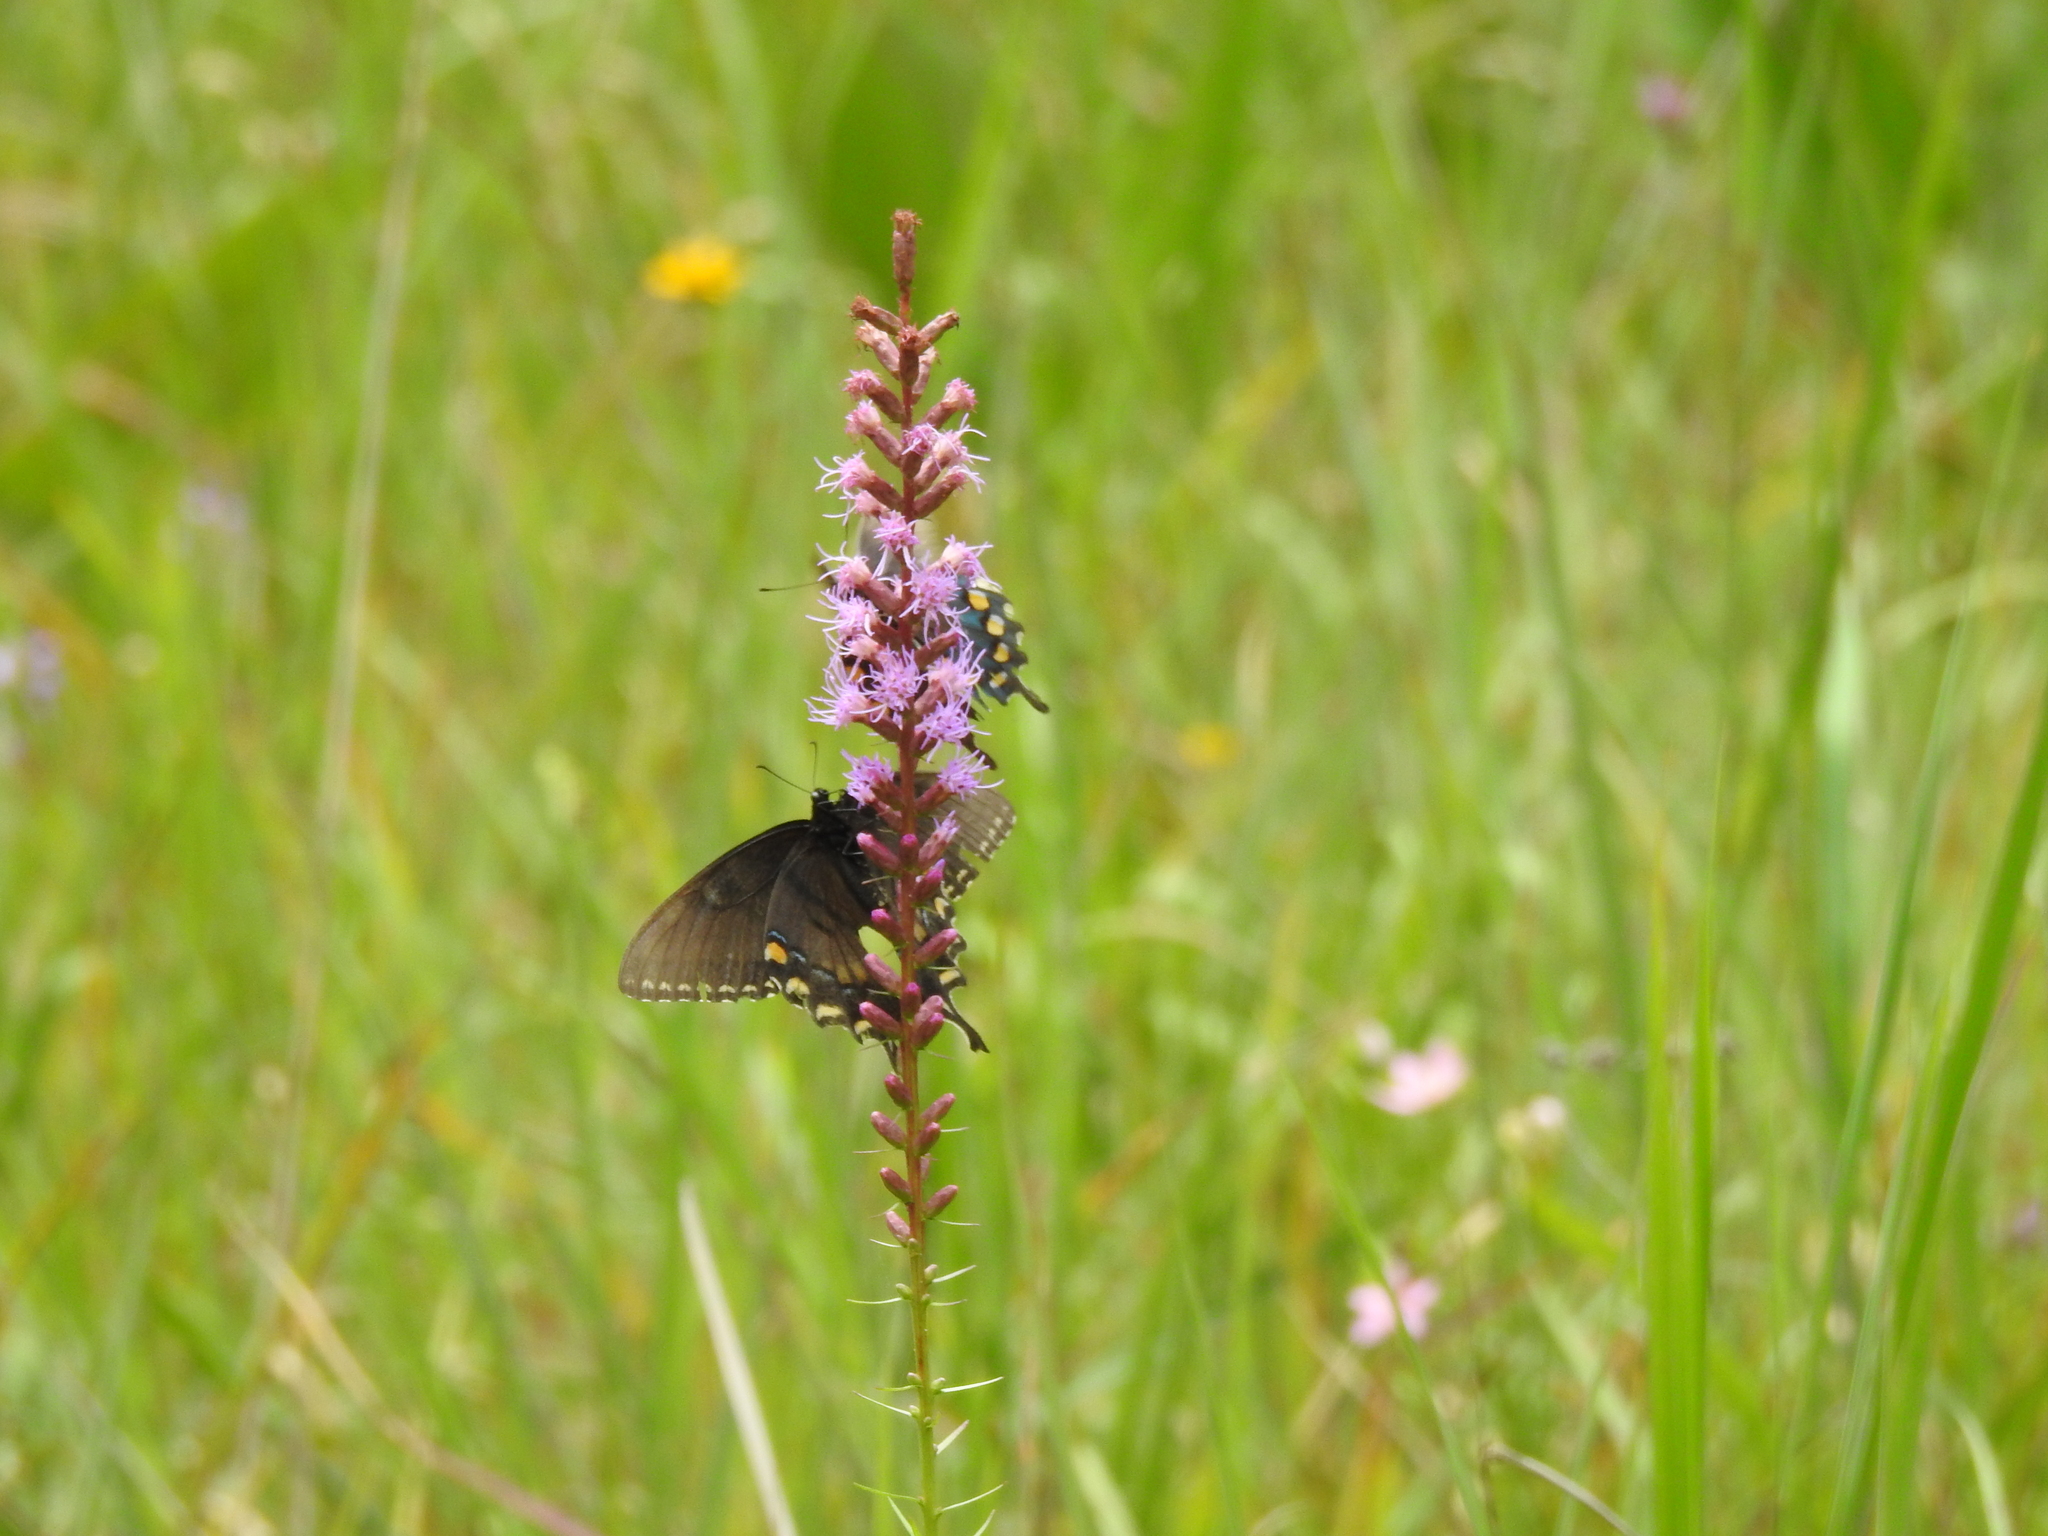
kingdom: Animalia
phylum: Arthropoda
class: Insecta
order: Lepidoptera
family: Papilionidae
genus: Papilio
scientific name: Papilio glaucus
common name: Tiger swallowtail
